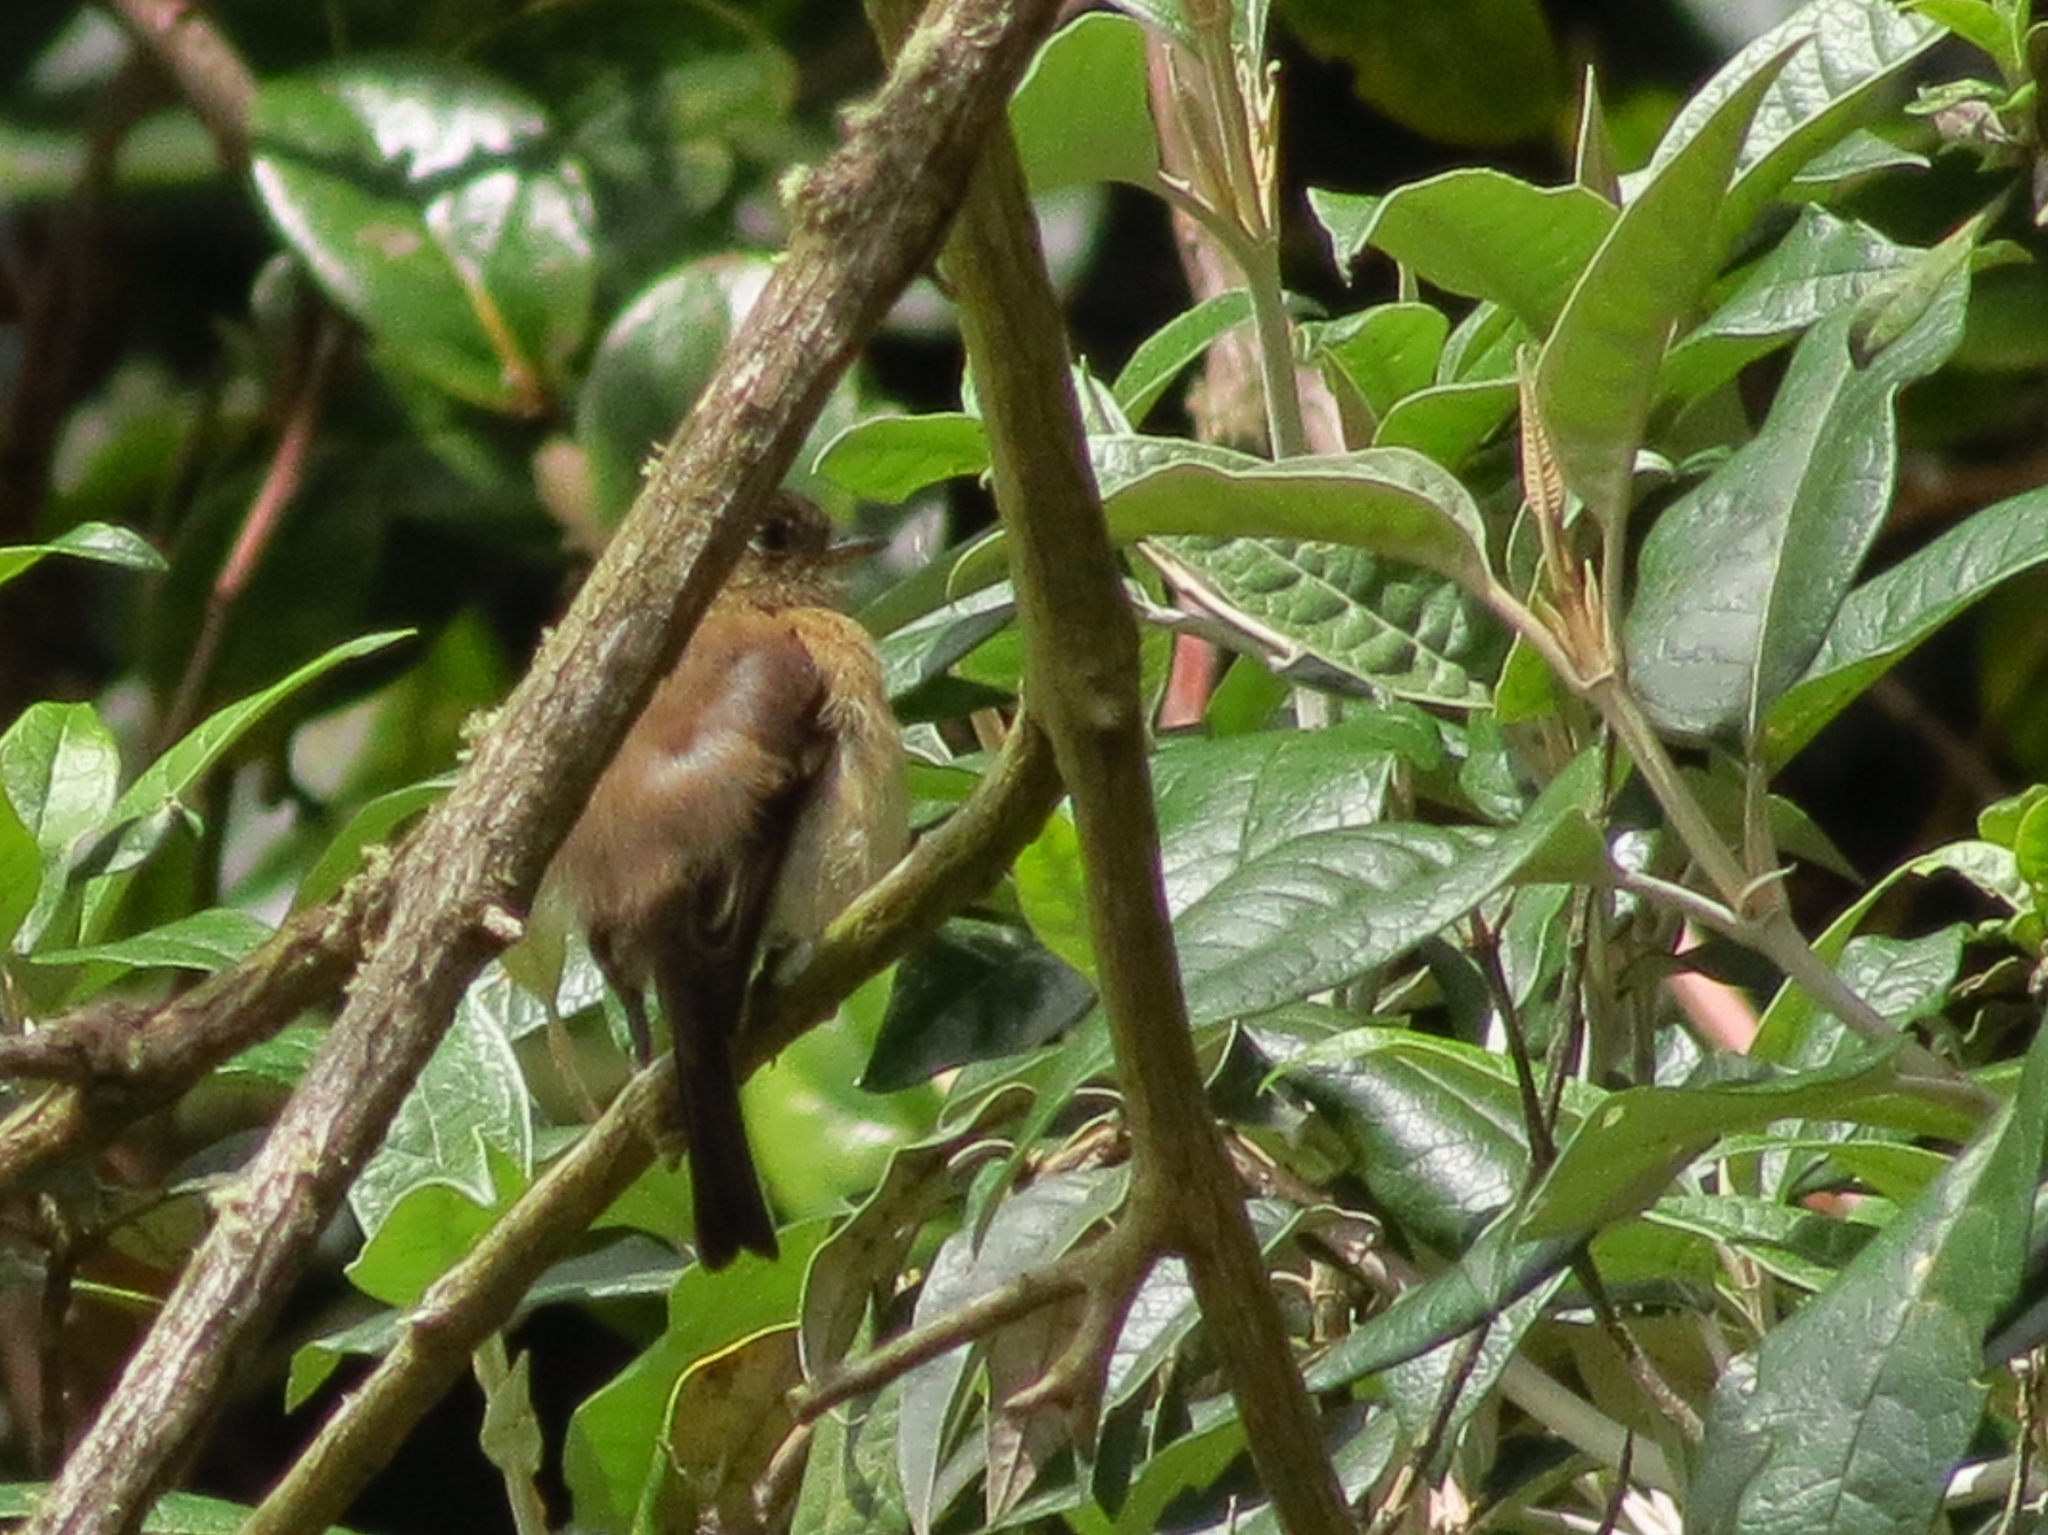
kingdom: Animalia
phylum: Chordata
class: Aves
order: Passeriformes
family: Tyrannidae
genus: Empidonax
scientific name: Empidonax atriceps
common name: Black-capped flycatcher
